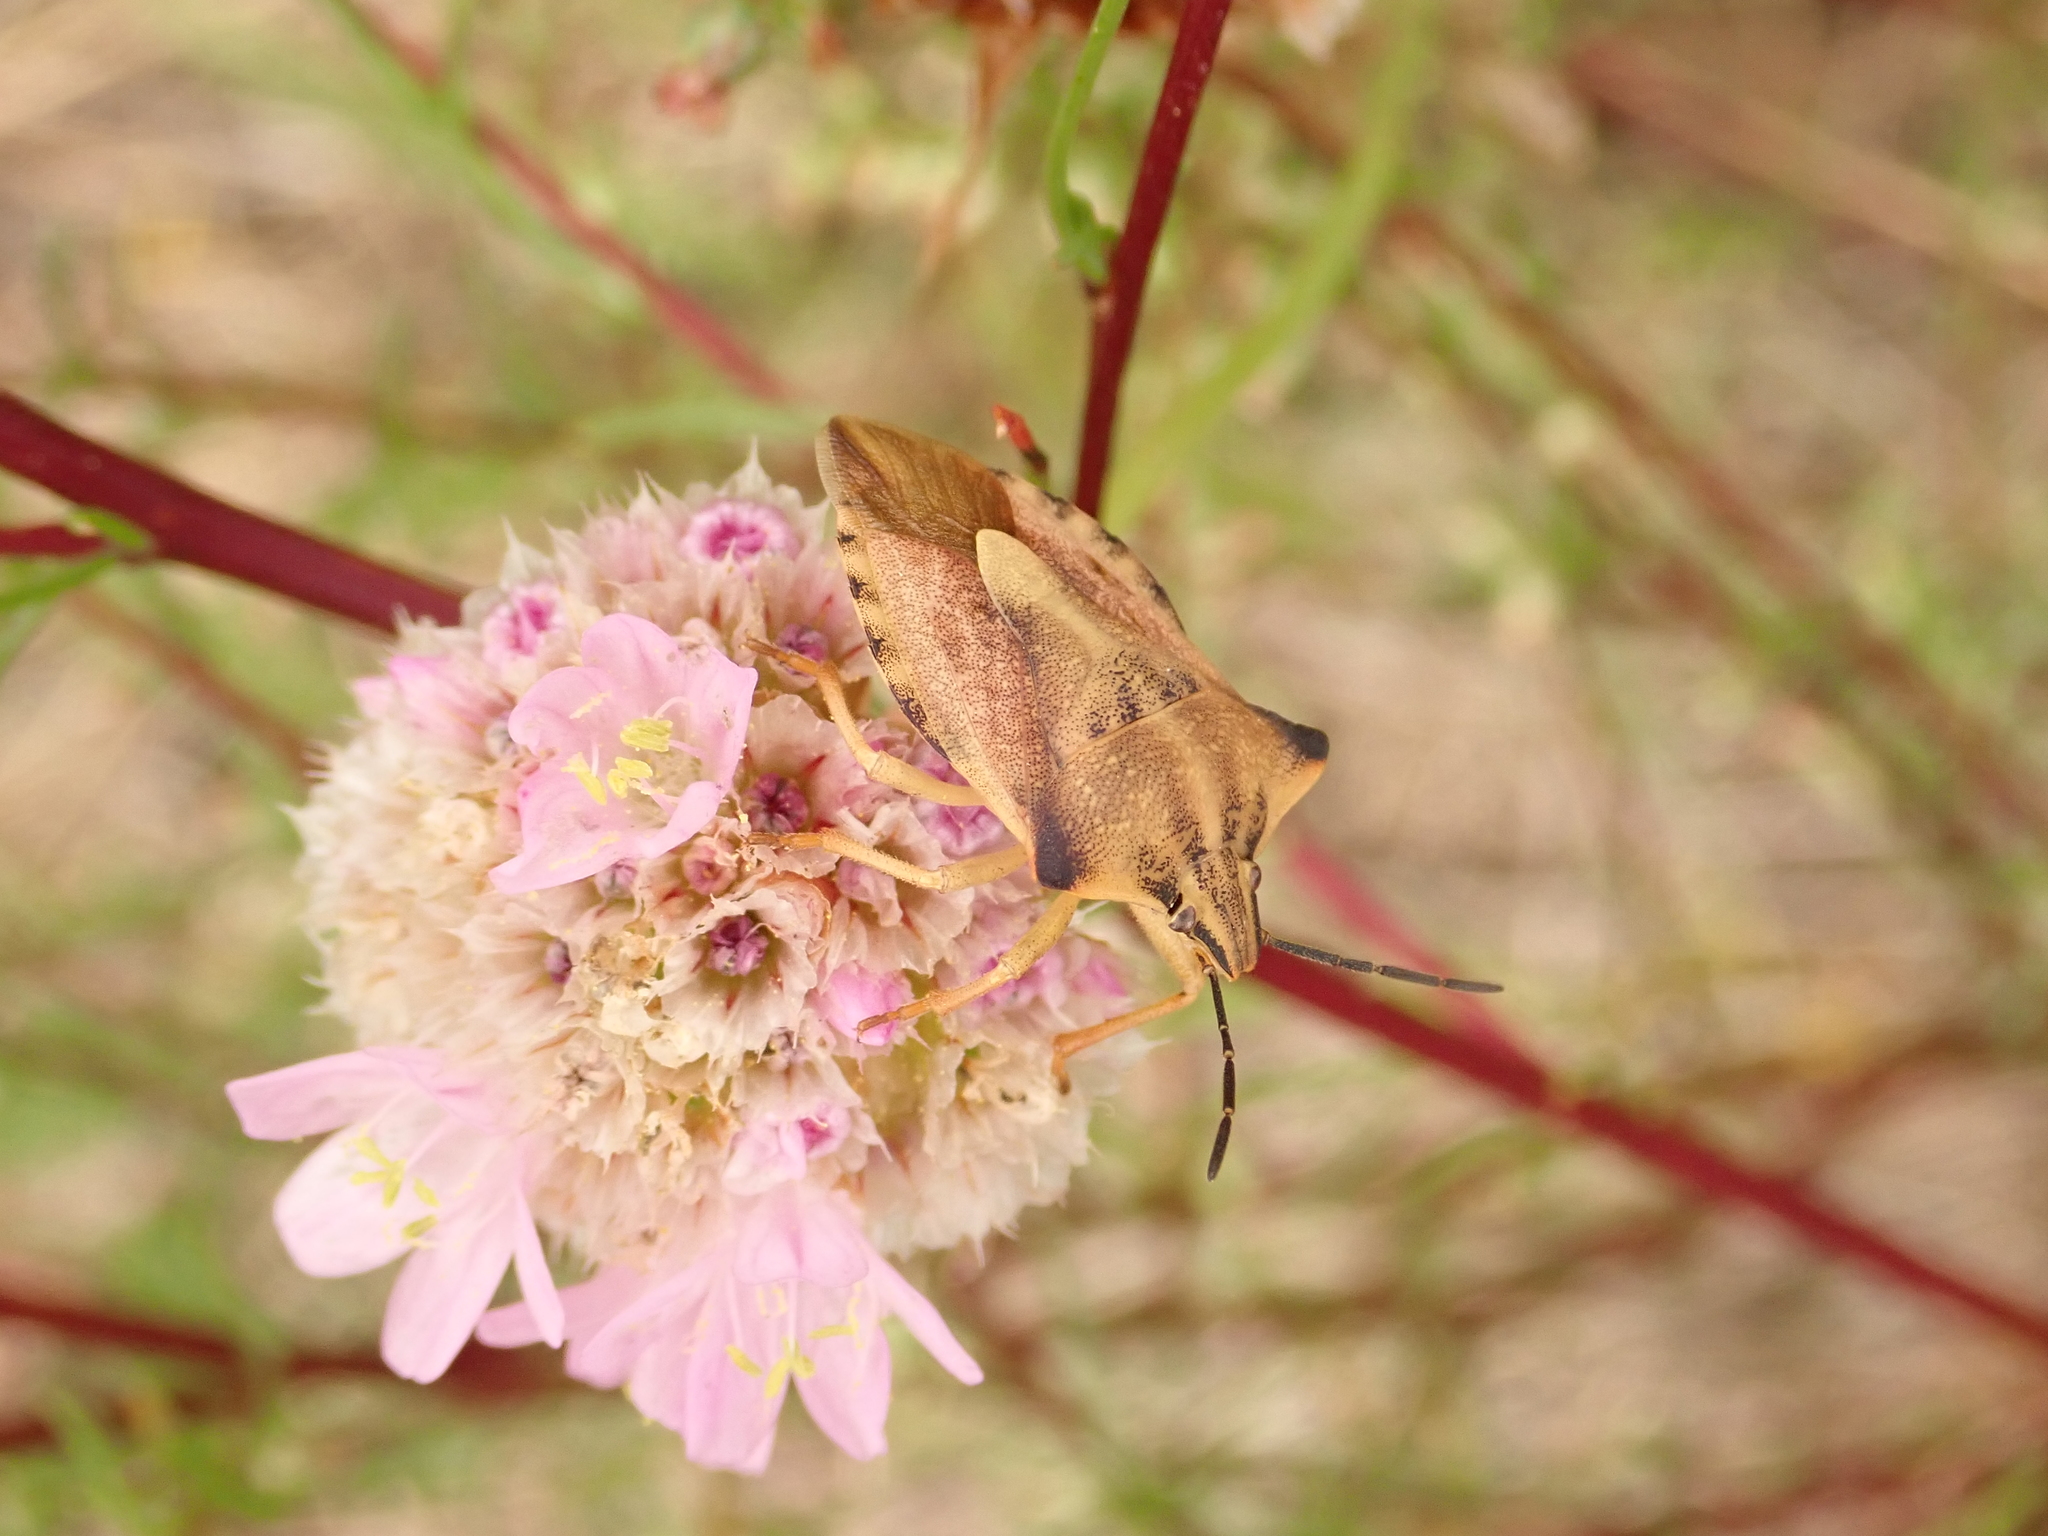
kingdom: Animalia
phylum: Arthropoda
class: Insecta
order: Hemiptera
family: Pentatomidae
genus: Carpocoris
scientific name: Carpocoris fuscispinus
